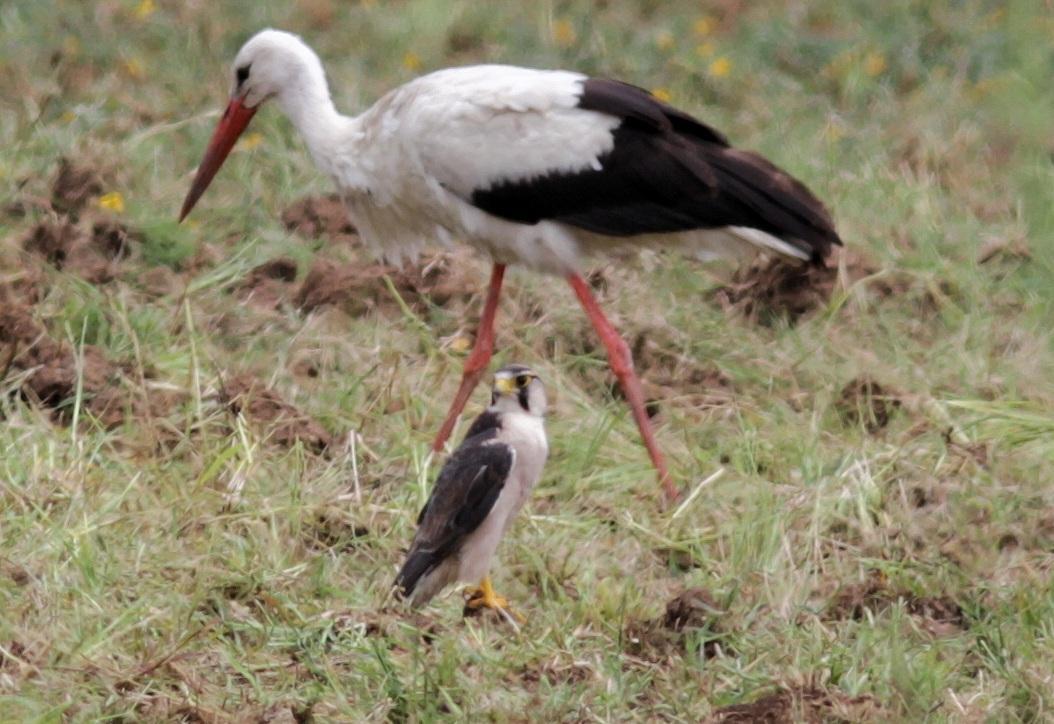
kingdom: Animalia
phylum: Chordata
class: Aves
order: Falconiformes
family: Falconidae
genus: Falco
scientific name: Falco biarmicus
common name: Lanner falcon
